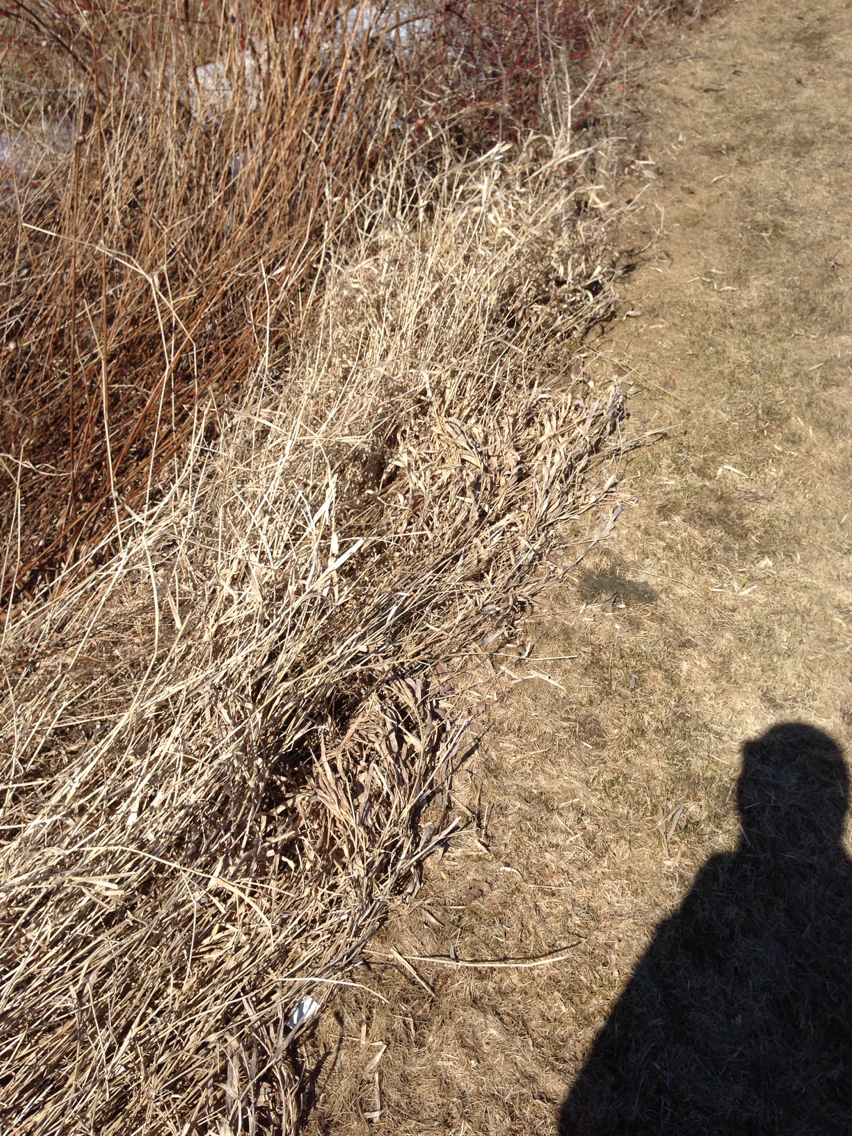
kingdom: Plantae
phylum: Tracheophyta
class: Liliopsida
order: Poales
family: Poaceae
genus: Phalaris
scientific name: Phalaris arundinacea
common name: Reed canary-grass
